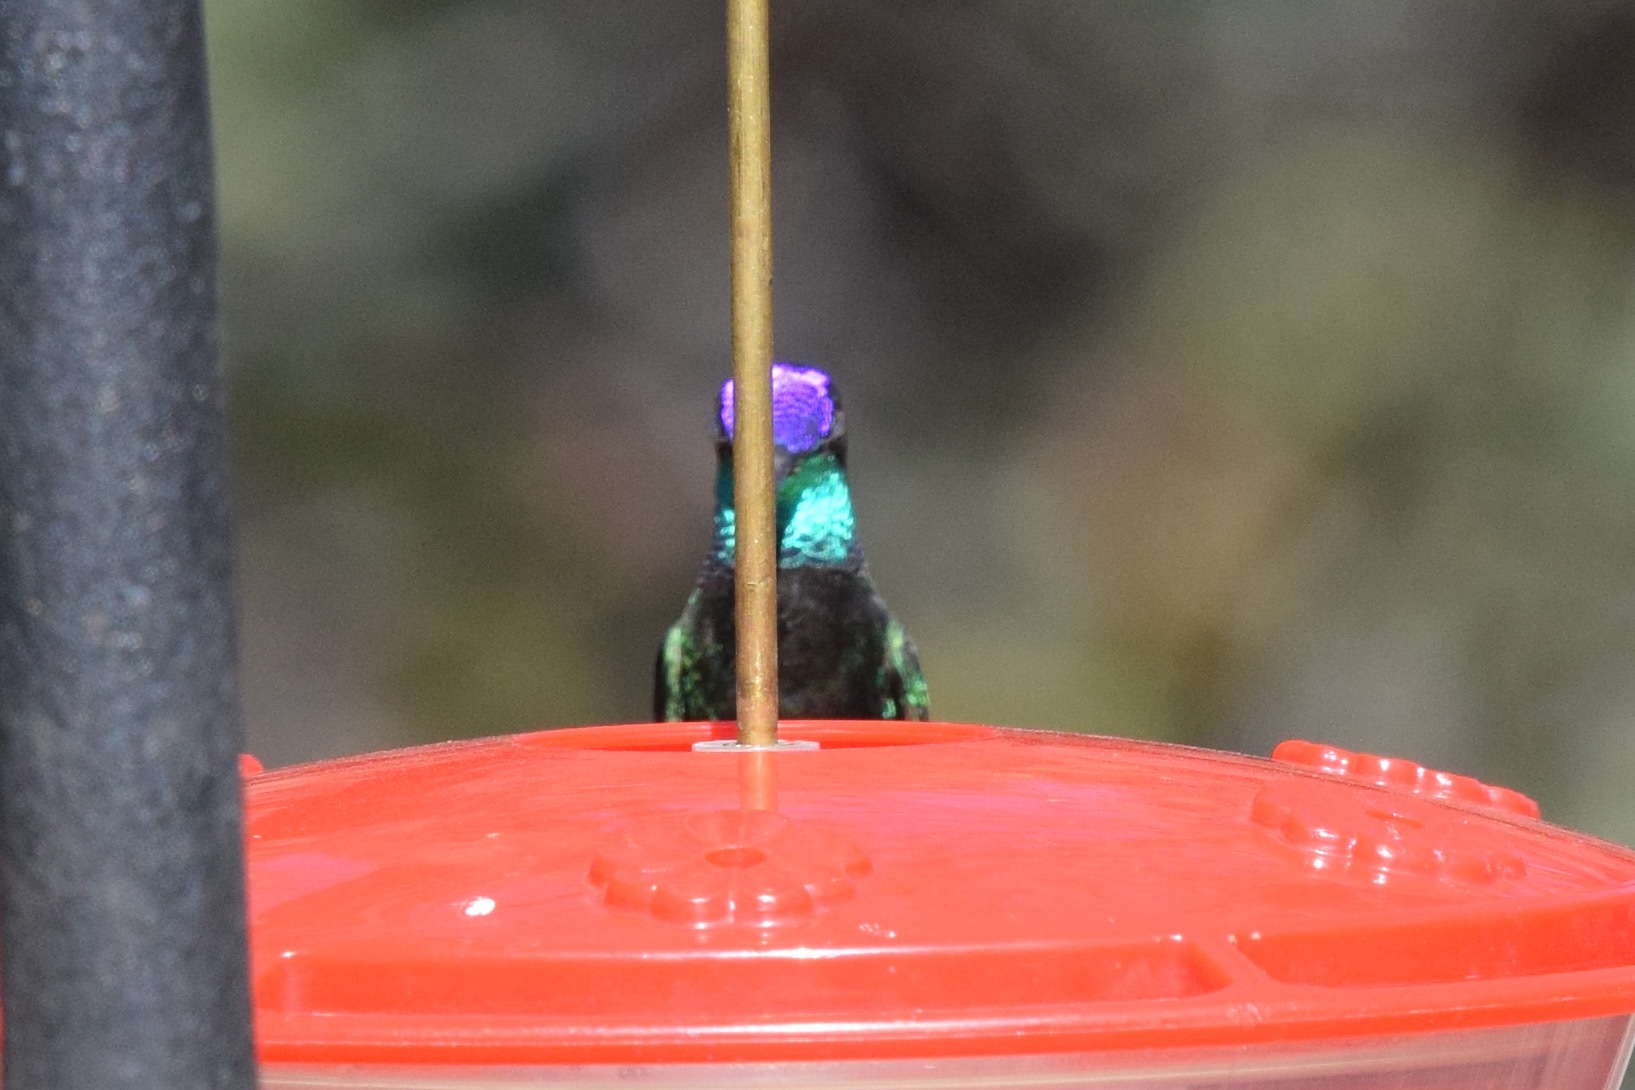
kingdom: Animalia
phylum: Chordata
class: Aves
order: Apodiformes
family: Trochilidae
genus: Eugenes
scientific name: Eugenes fulgens
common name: Magnificent hummingbird
